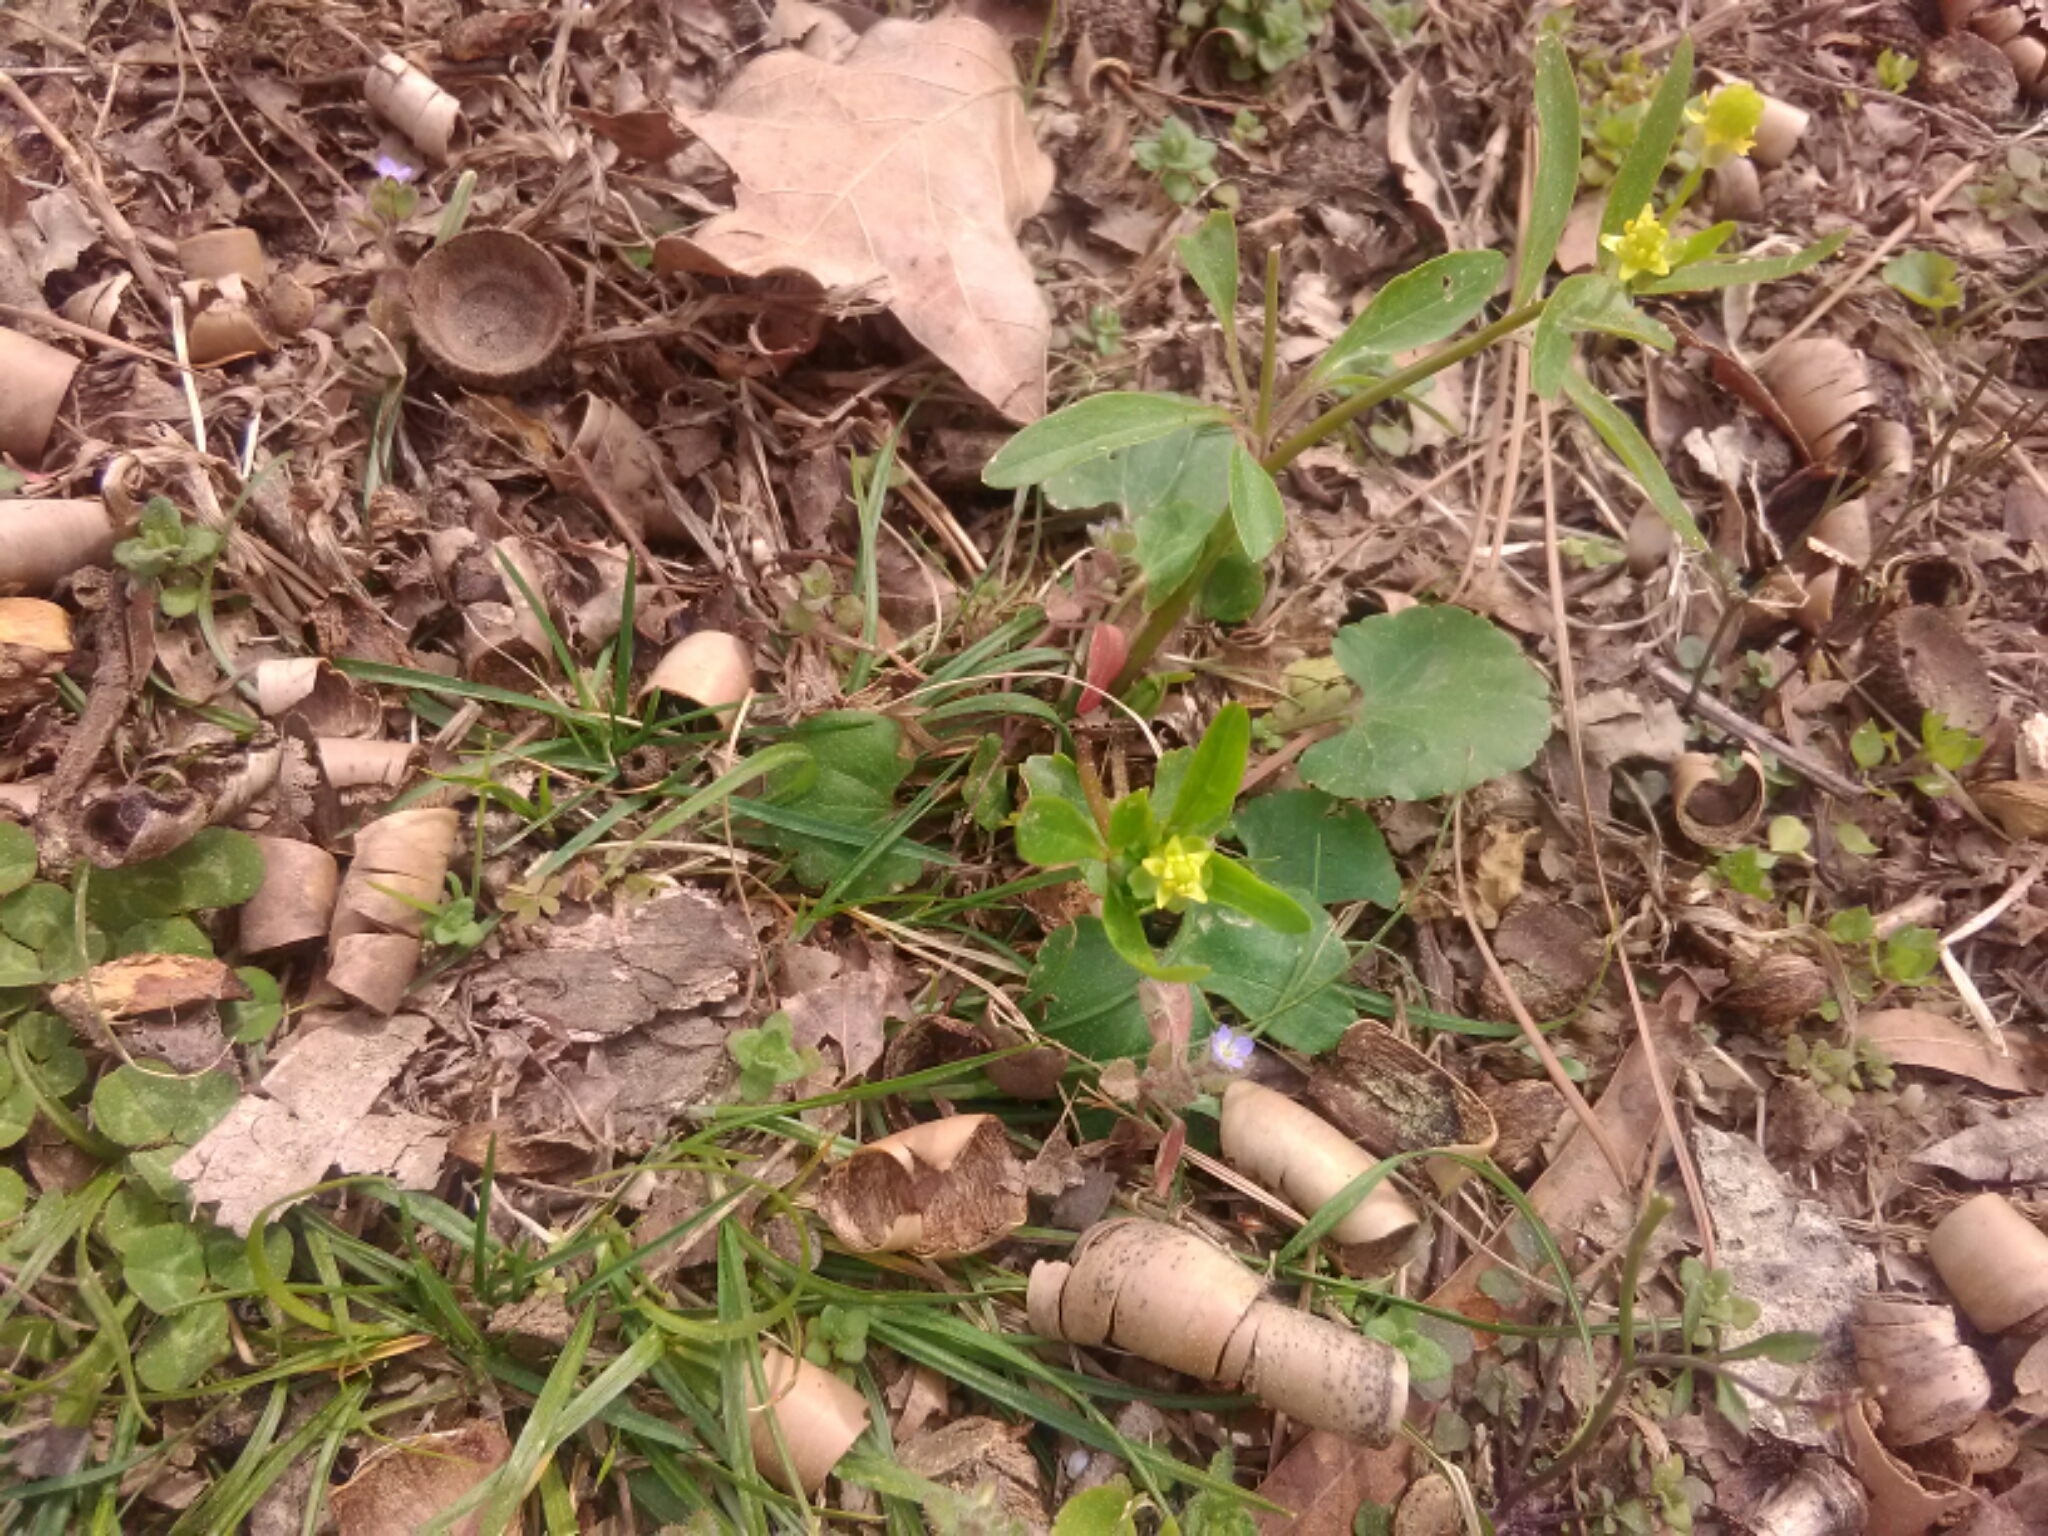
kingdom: Plantae
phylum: Tracheophyta
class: Magnoliopsida
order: Ranunculales
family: Ranunculaceae
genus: Ranunculus
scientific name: Ranunculus abortivus
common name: Early wood buttercup
